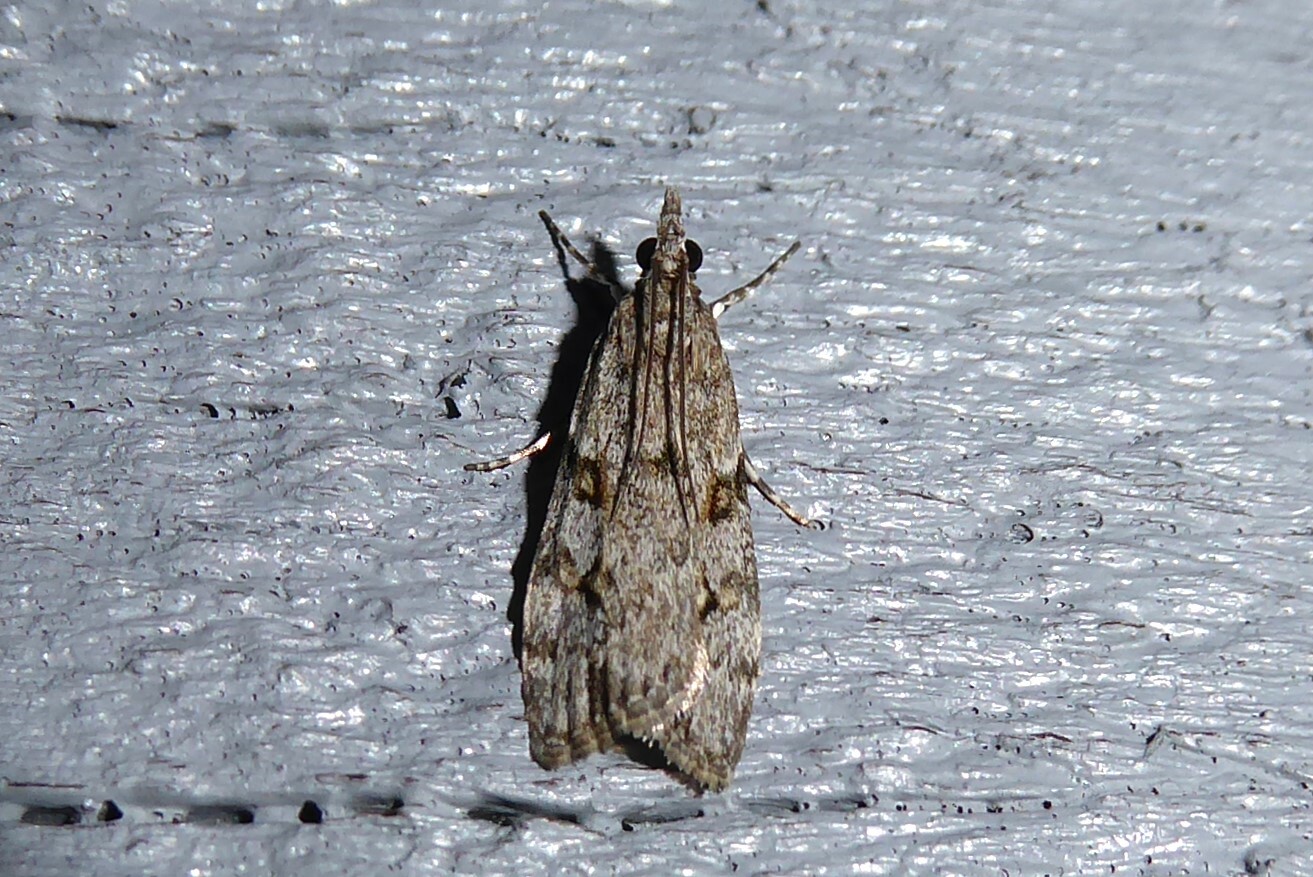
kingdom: Animalia
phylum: Arthropoda
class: Insecta
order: Lepidoptera
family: Crambidae
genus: Eudonia
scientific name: Eudonia cymatias
